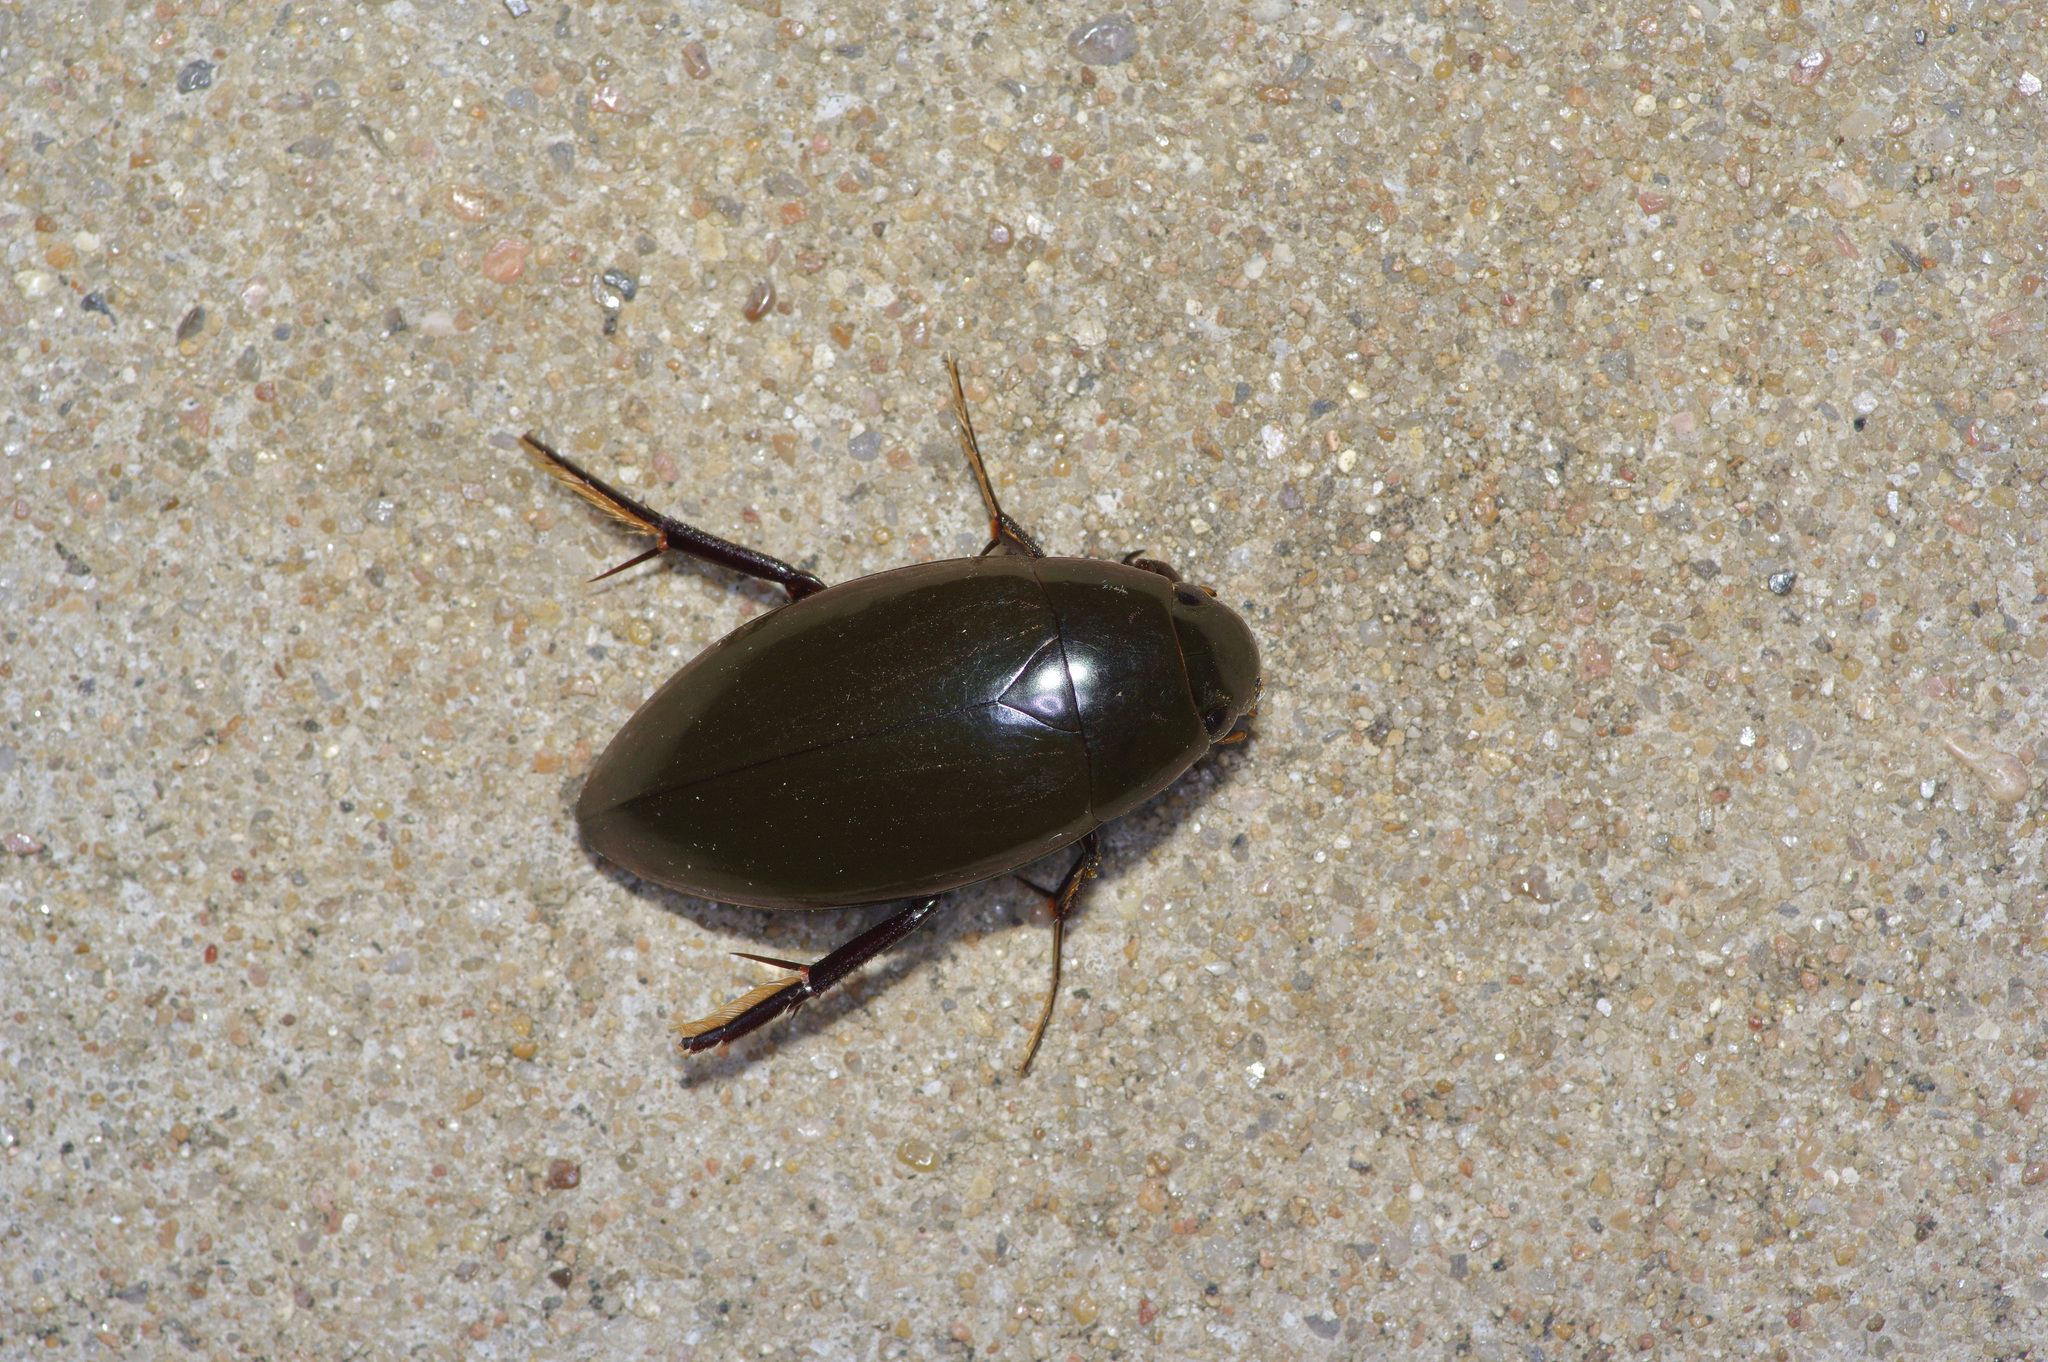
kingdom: Animalia
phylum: Arthropoda
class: Insecta
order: Coleoptera
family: Hydrophilidae
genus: Hydrophilus
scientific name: Hydrophilus triangularis
